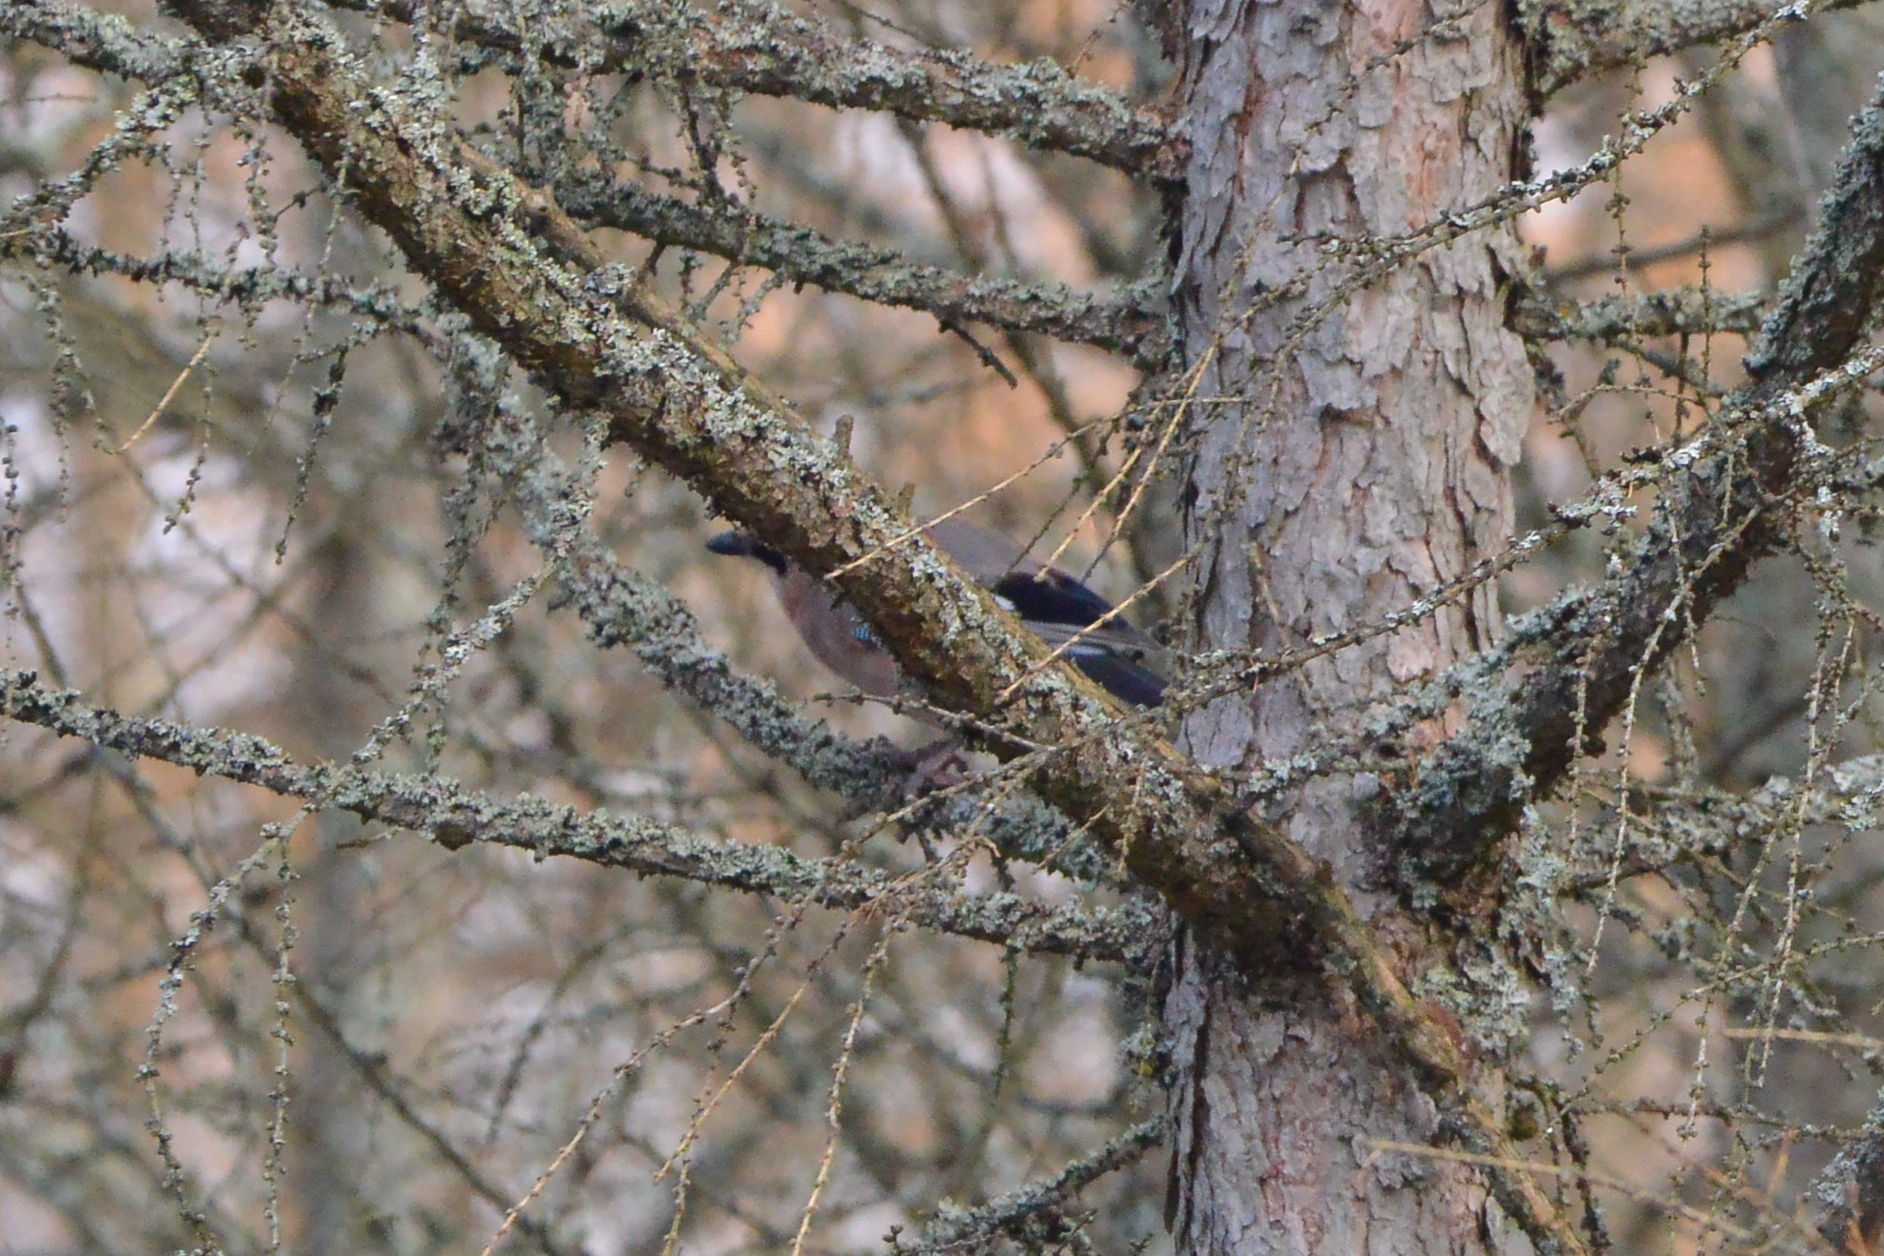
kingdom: Animalia
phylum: Chordata
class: Aves
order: Passeriformes
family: Corvidae
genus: Garrulus
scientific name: Garrulus glandarius
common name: Eurasian jay
